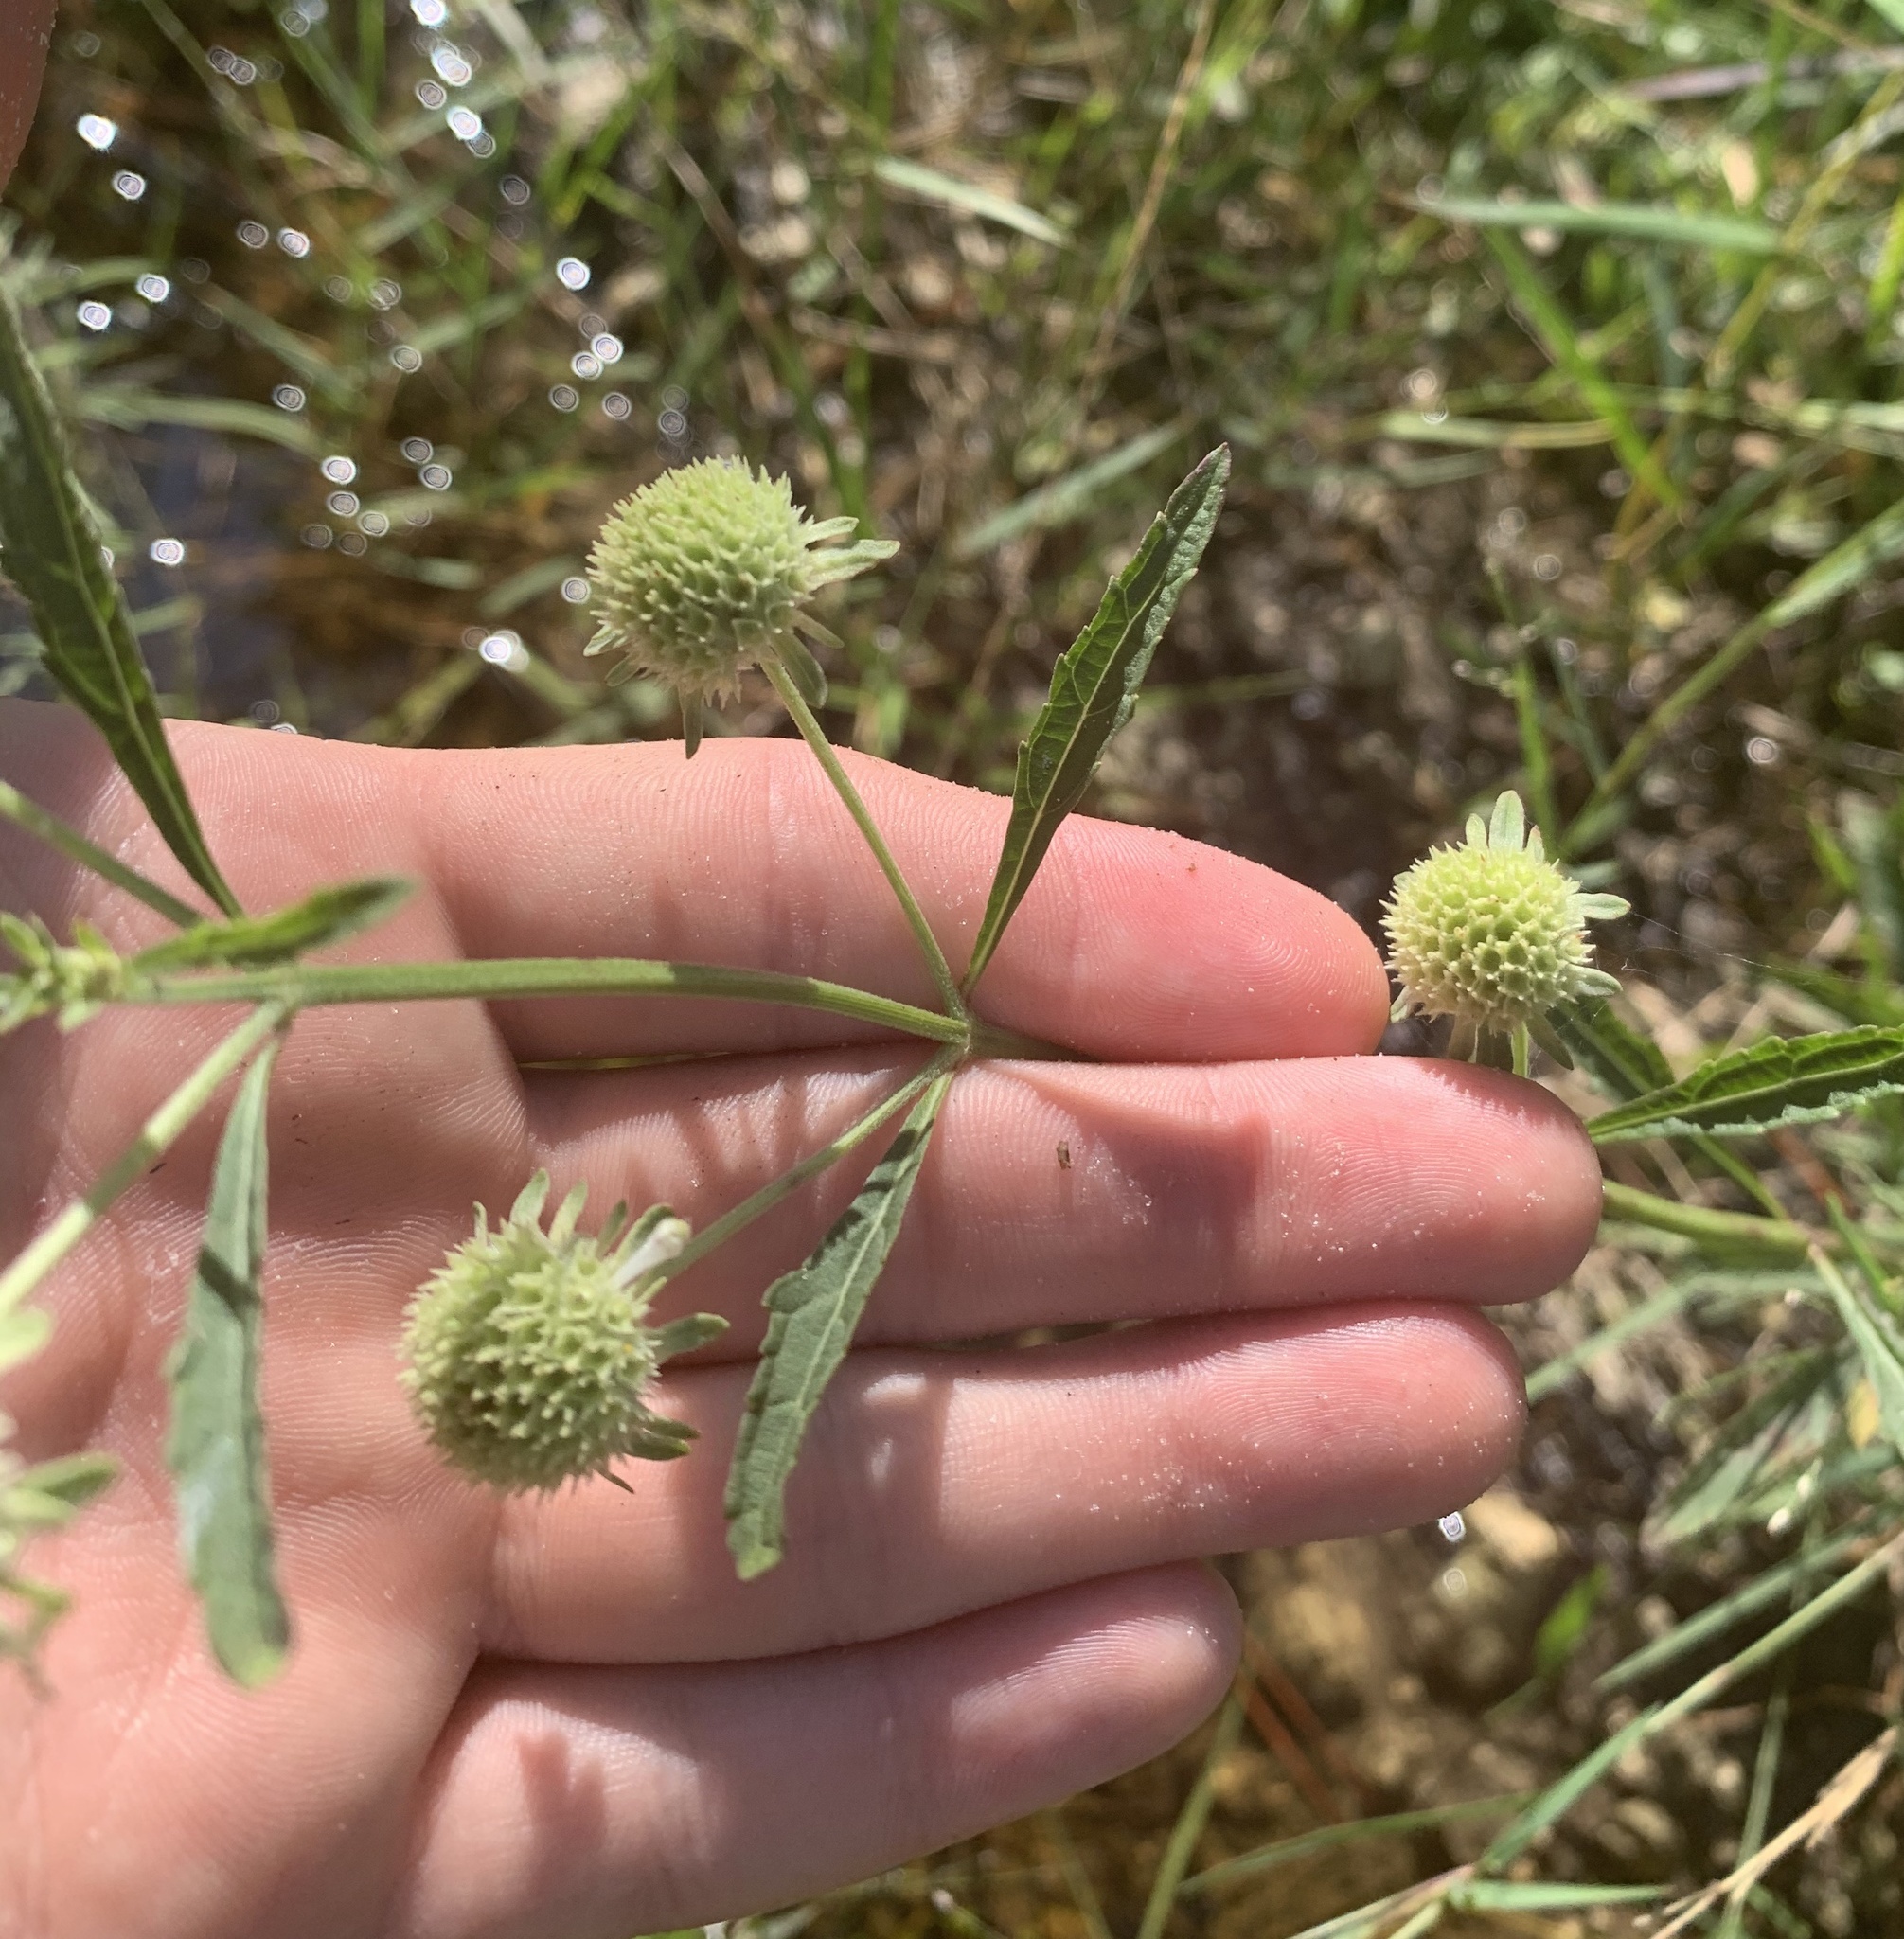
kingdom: Plantae
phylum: Tracheophyta
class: Magnoliopsida
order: Lamiales
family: Lamiaceae
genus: Hyptis
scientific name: Hyptis alata
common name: Cluster bush-mint
